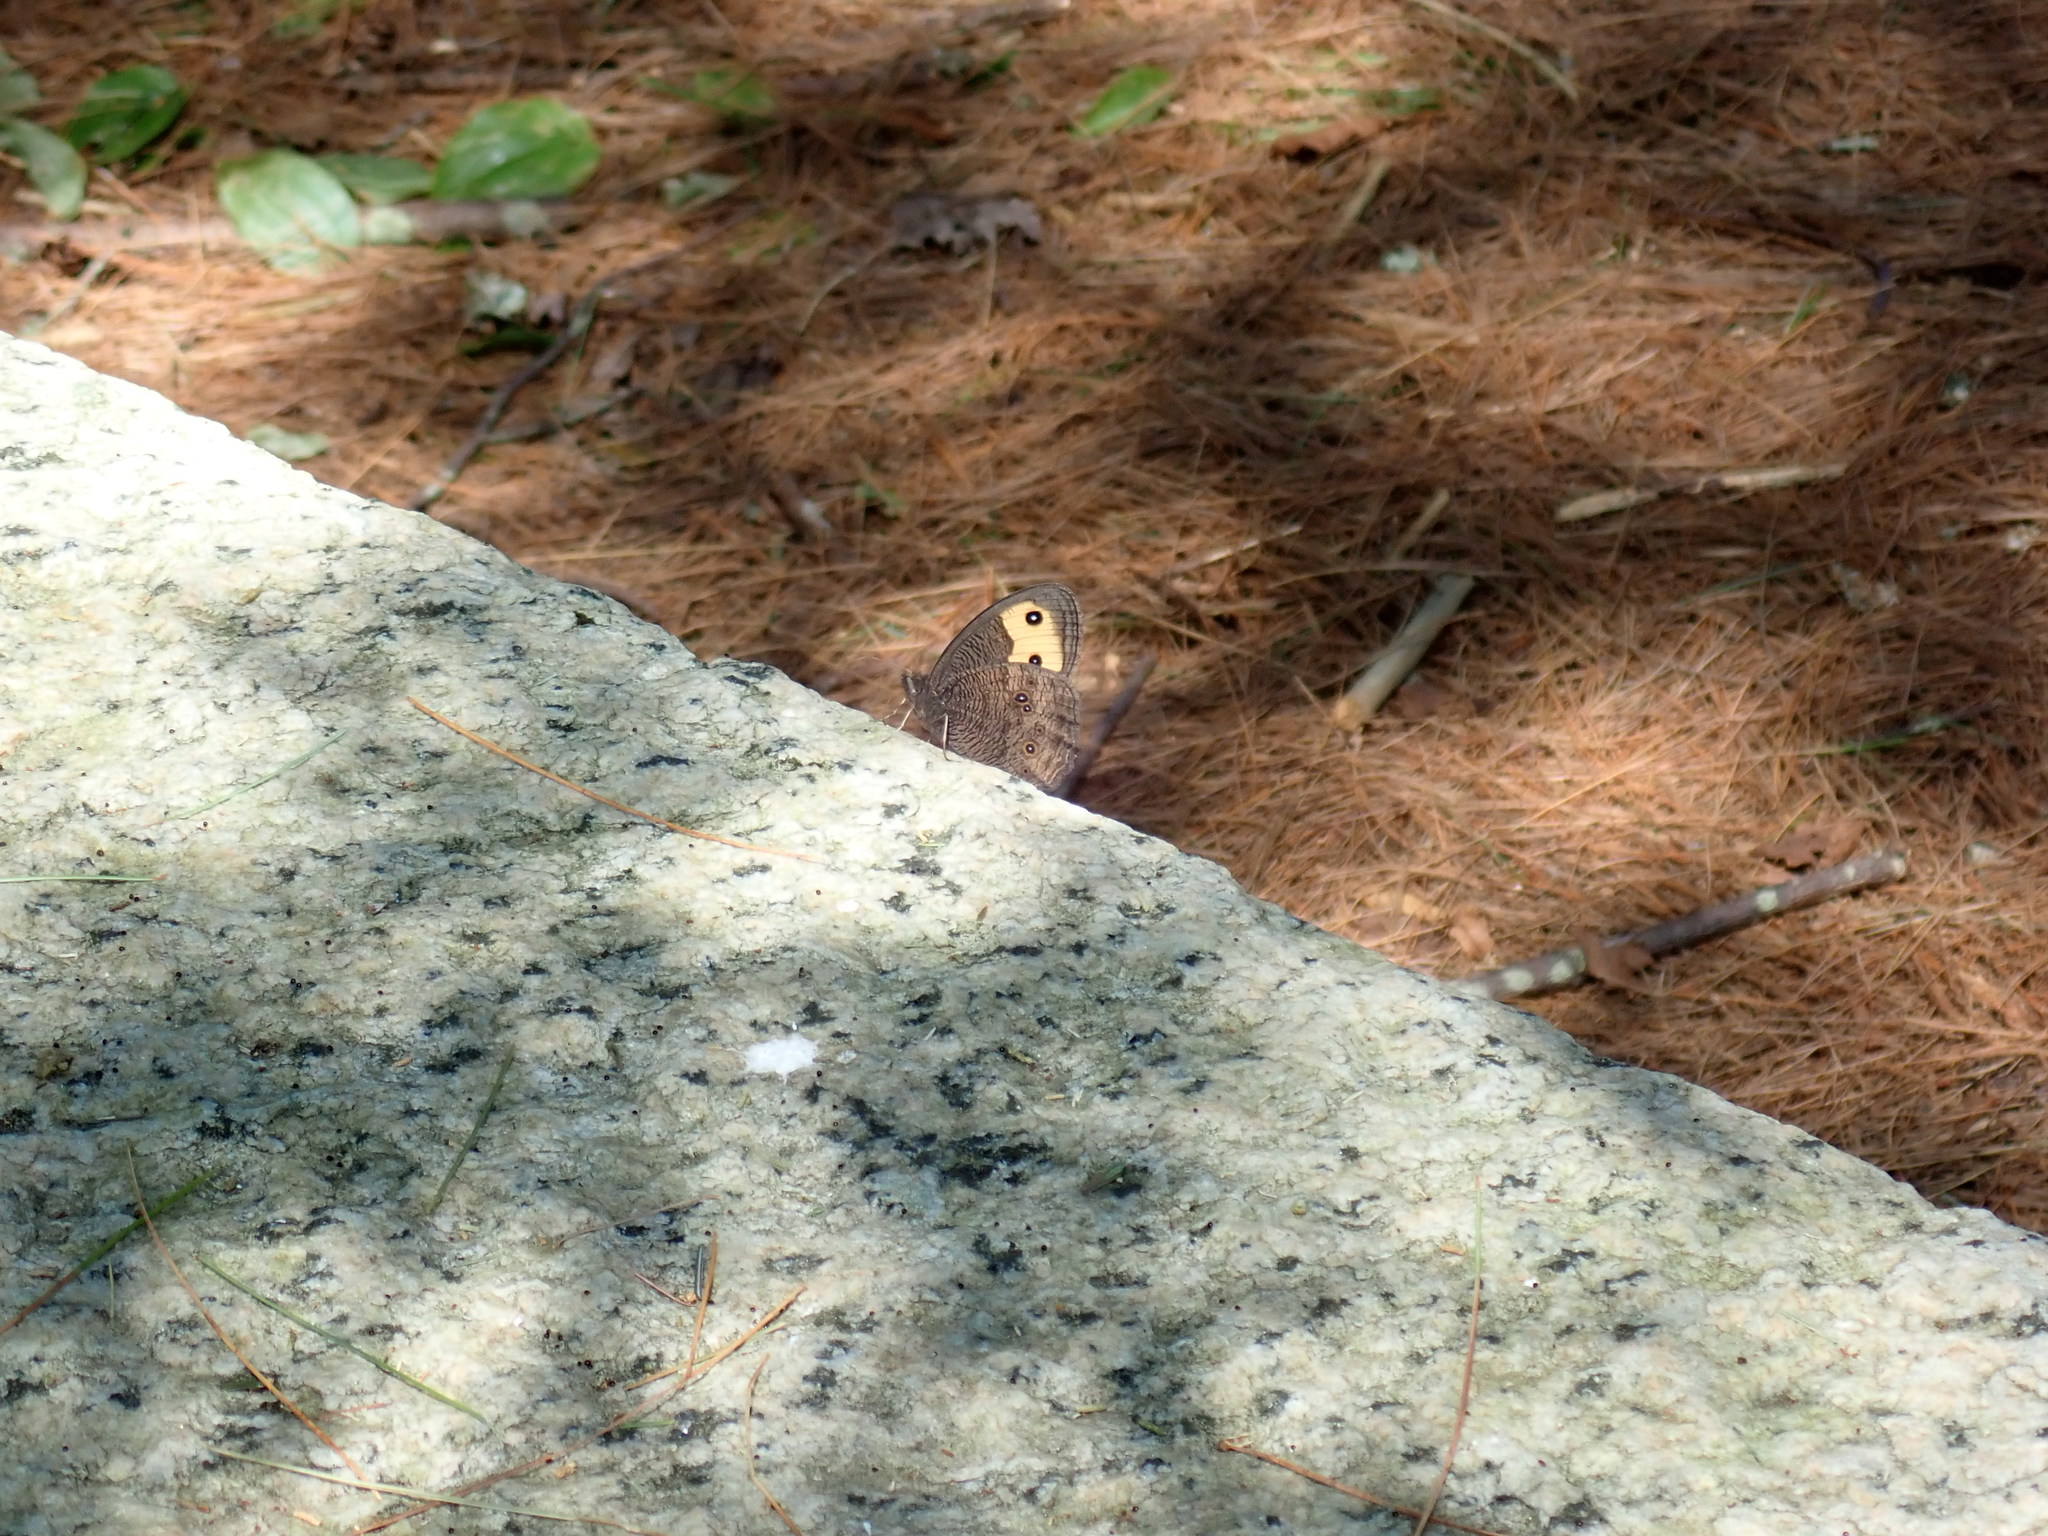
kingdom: Animalia
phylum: Arthropoda
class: Insecta
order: Lepidoptera
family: Nymphalidae
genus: Cercyonis
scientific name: Cercyonis pegala
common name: Common wood-nymph
